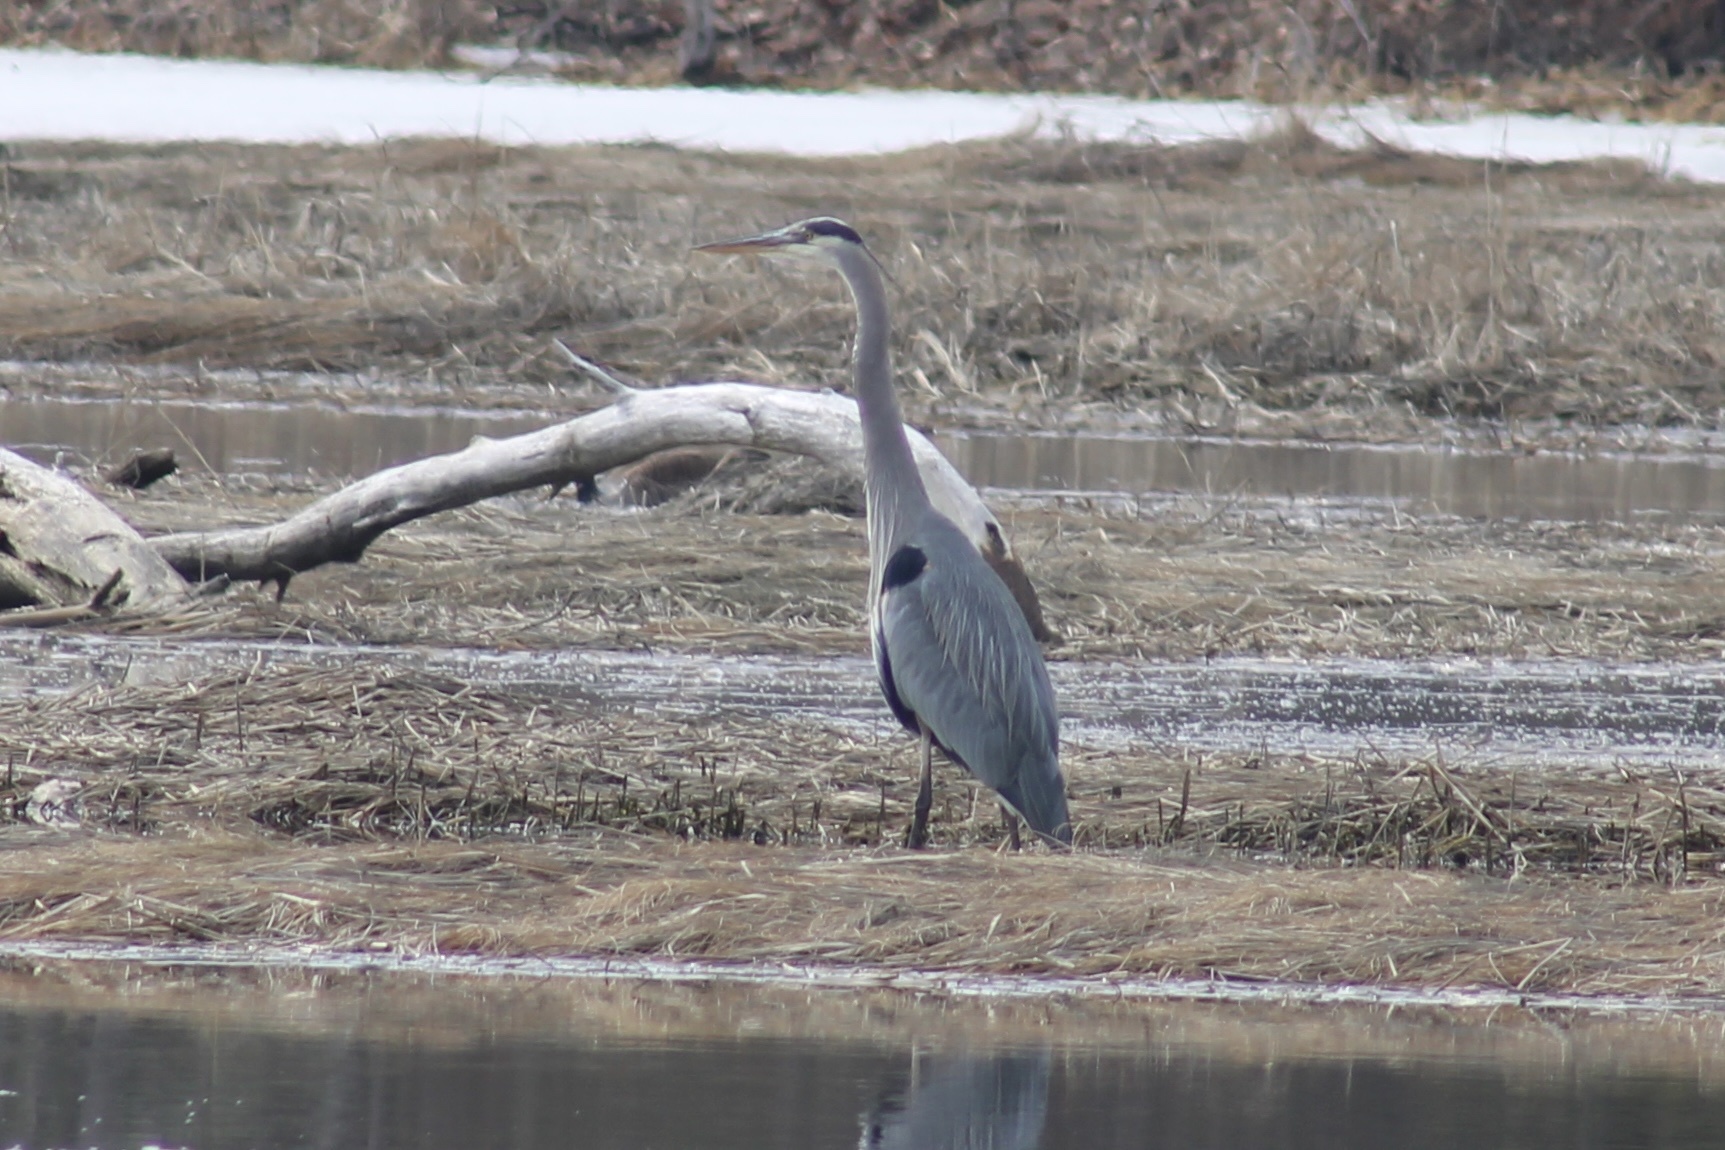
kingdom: Animalia
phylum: Chordata
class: Aves
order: Pelecaniformes
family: Ardeidae
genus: Ardea
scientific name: Ardea herodias
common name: Great blue heron
